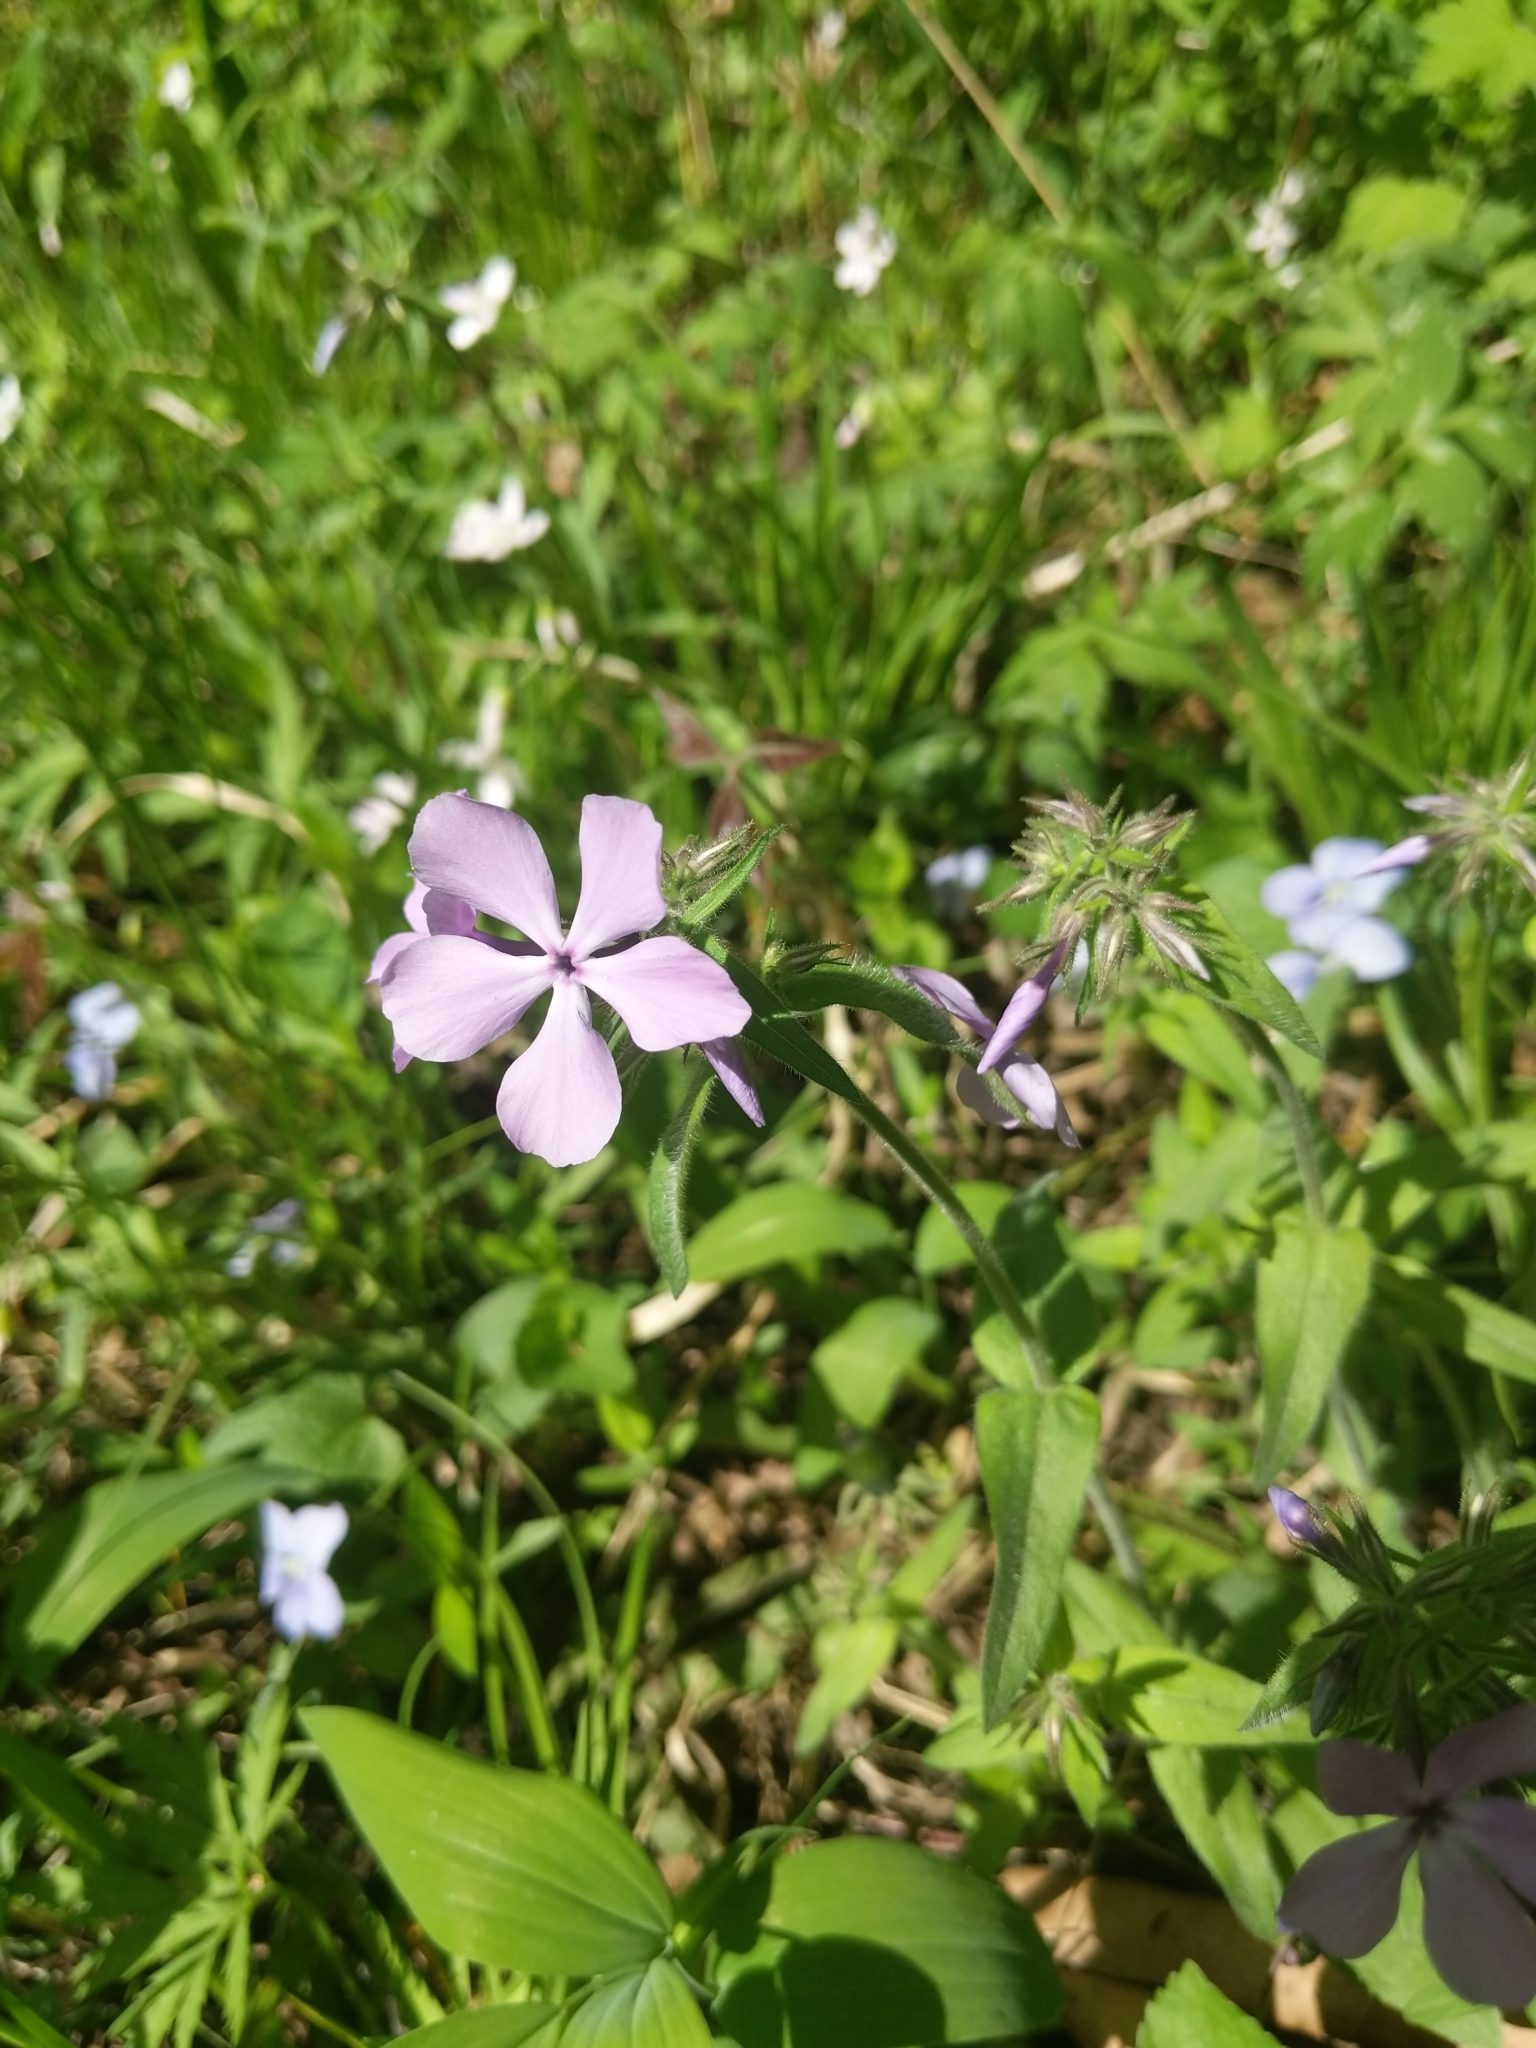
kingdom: Plantae
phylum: Tracheophyta
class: Magnoliopsida
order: Ericales
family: Polemoniaceae
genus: Phlox
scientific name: Phlox divaricata
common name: Blue phlox
